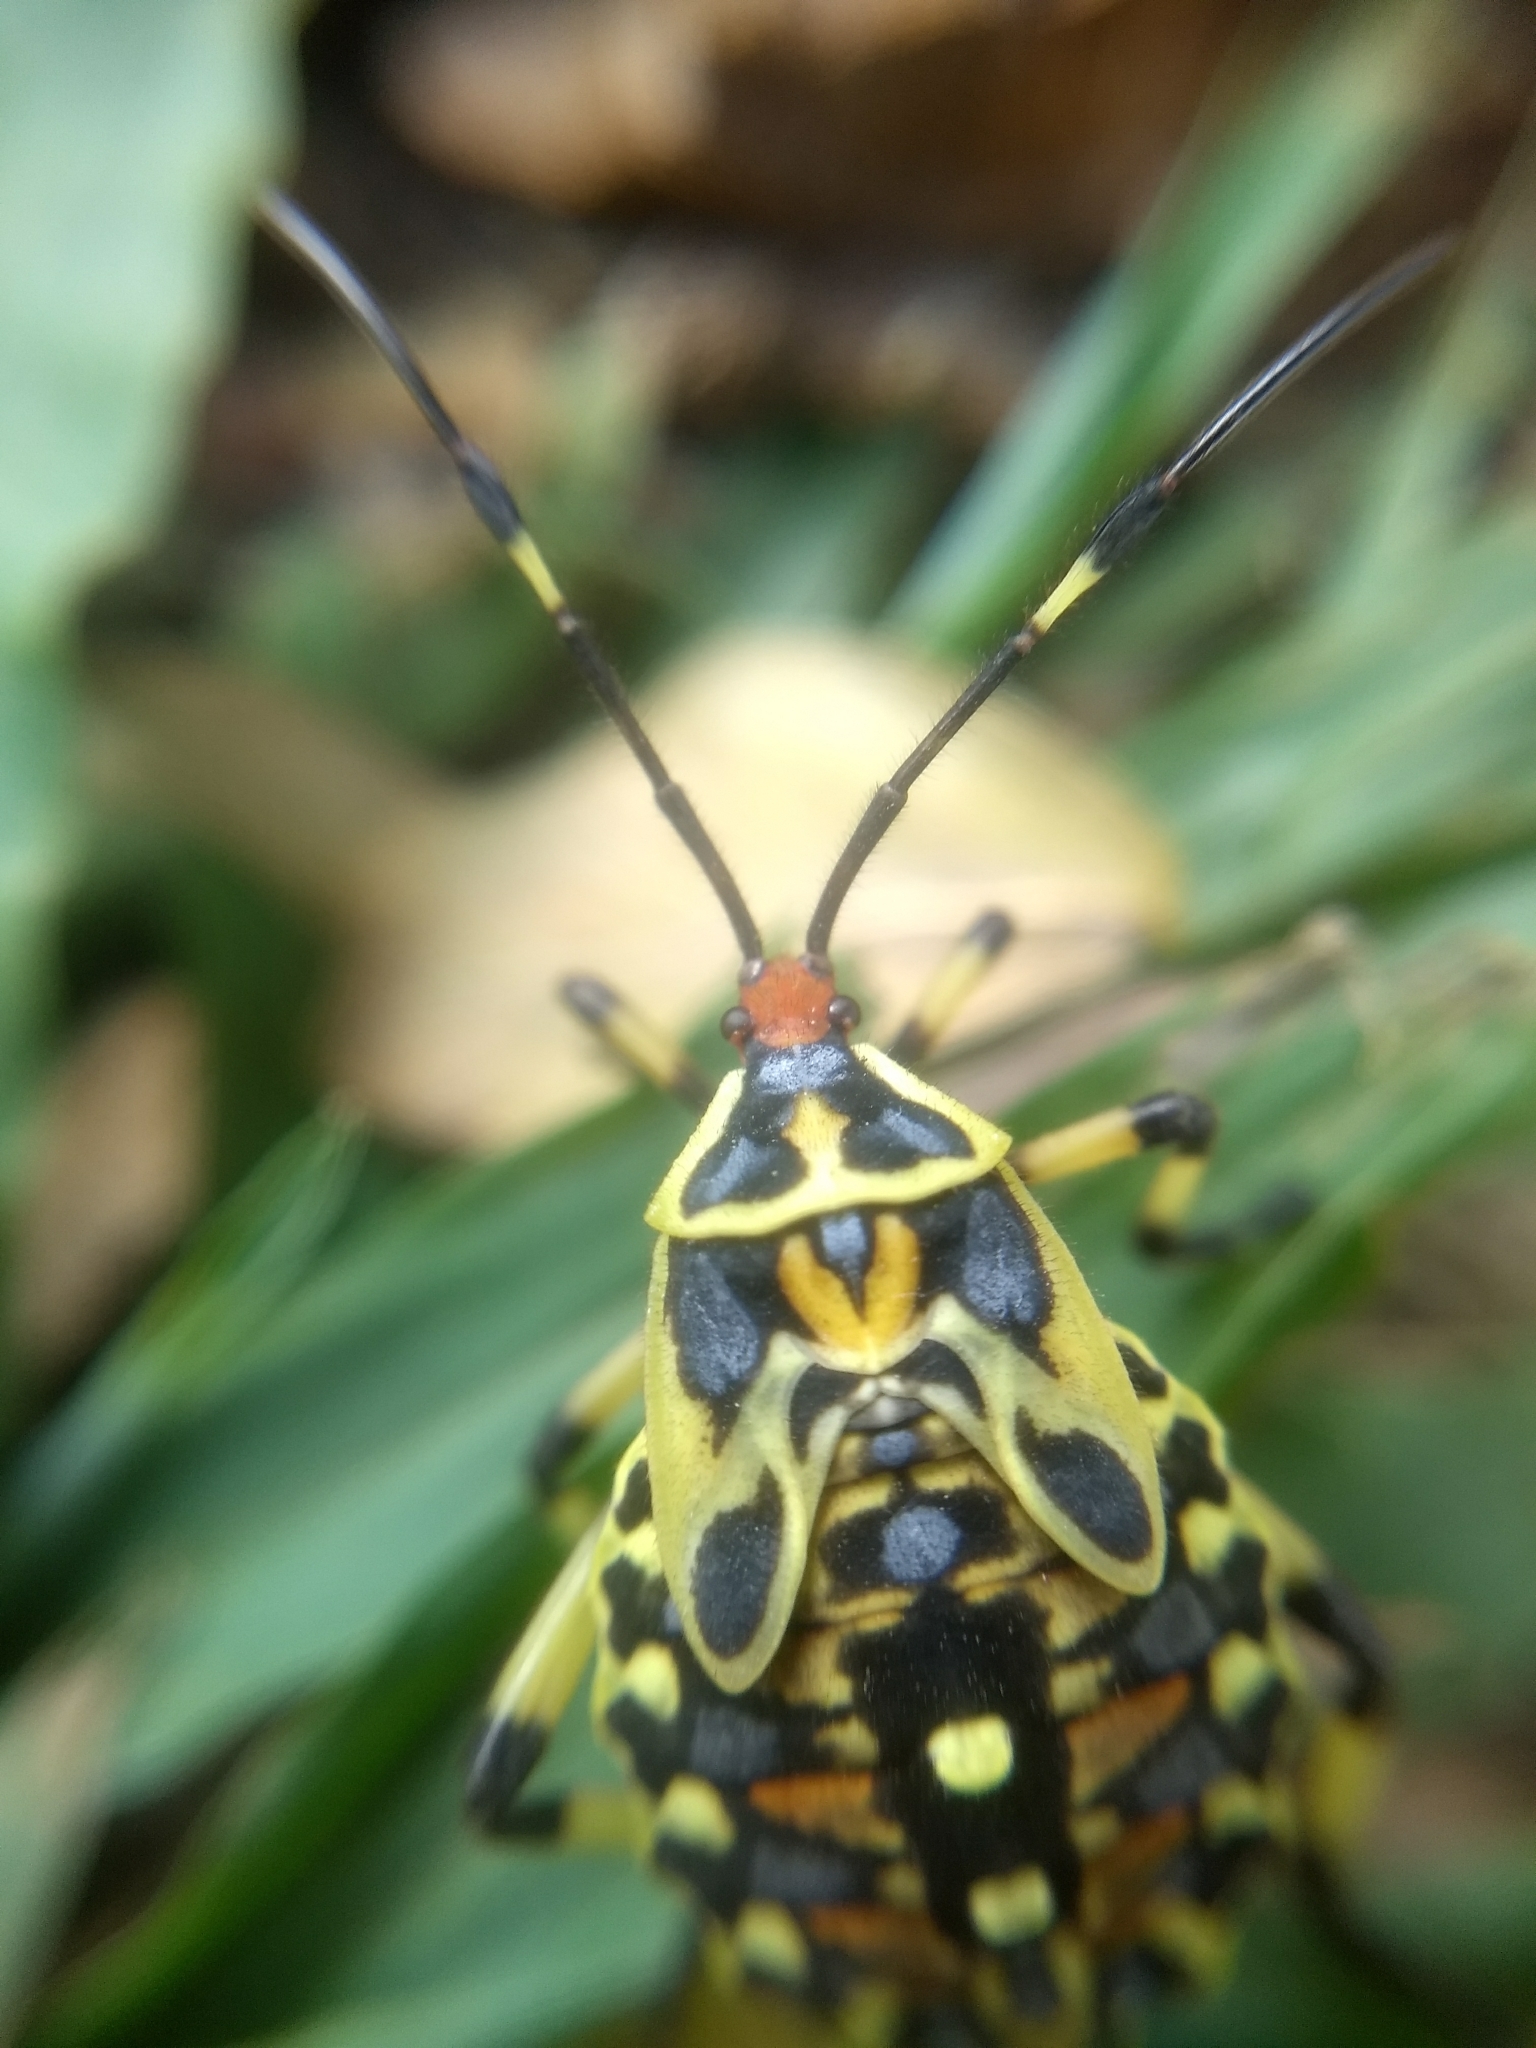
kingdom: Animalia
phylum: Arthropoda
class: Insecta
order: Hemiptera
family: Coreidae
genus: Pachylis
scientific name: Pachylis laticornis
